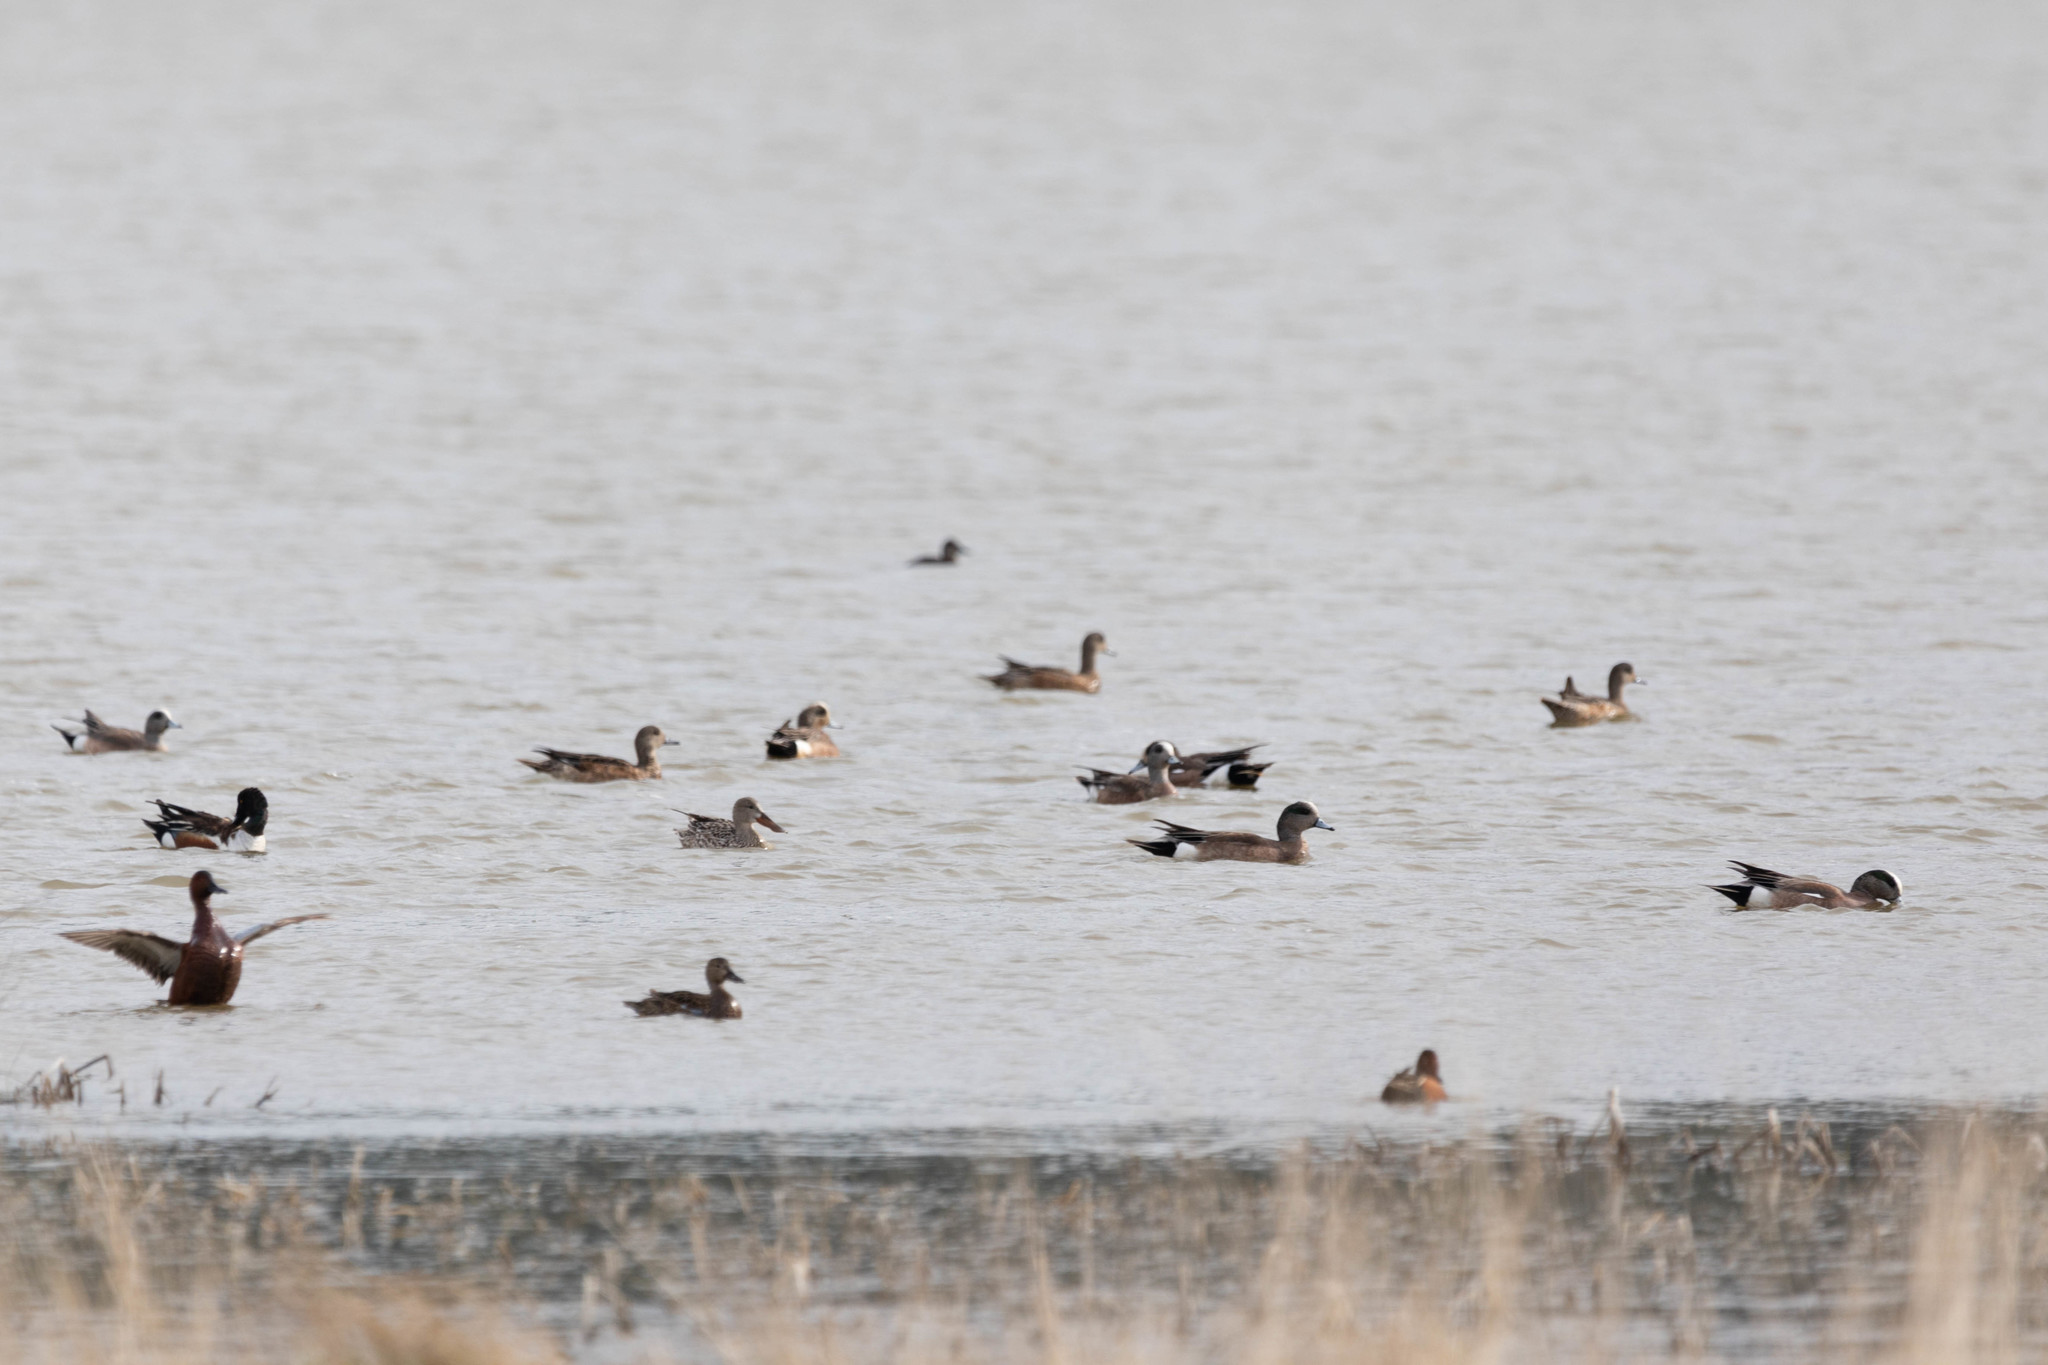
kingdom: Animalia
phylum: Chordata
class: Aves
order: Anseriformes
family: Anatidae
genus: Mareca
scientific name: Mareca americana
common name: American wigeon
